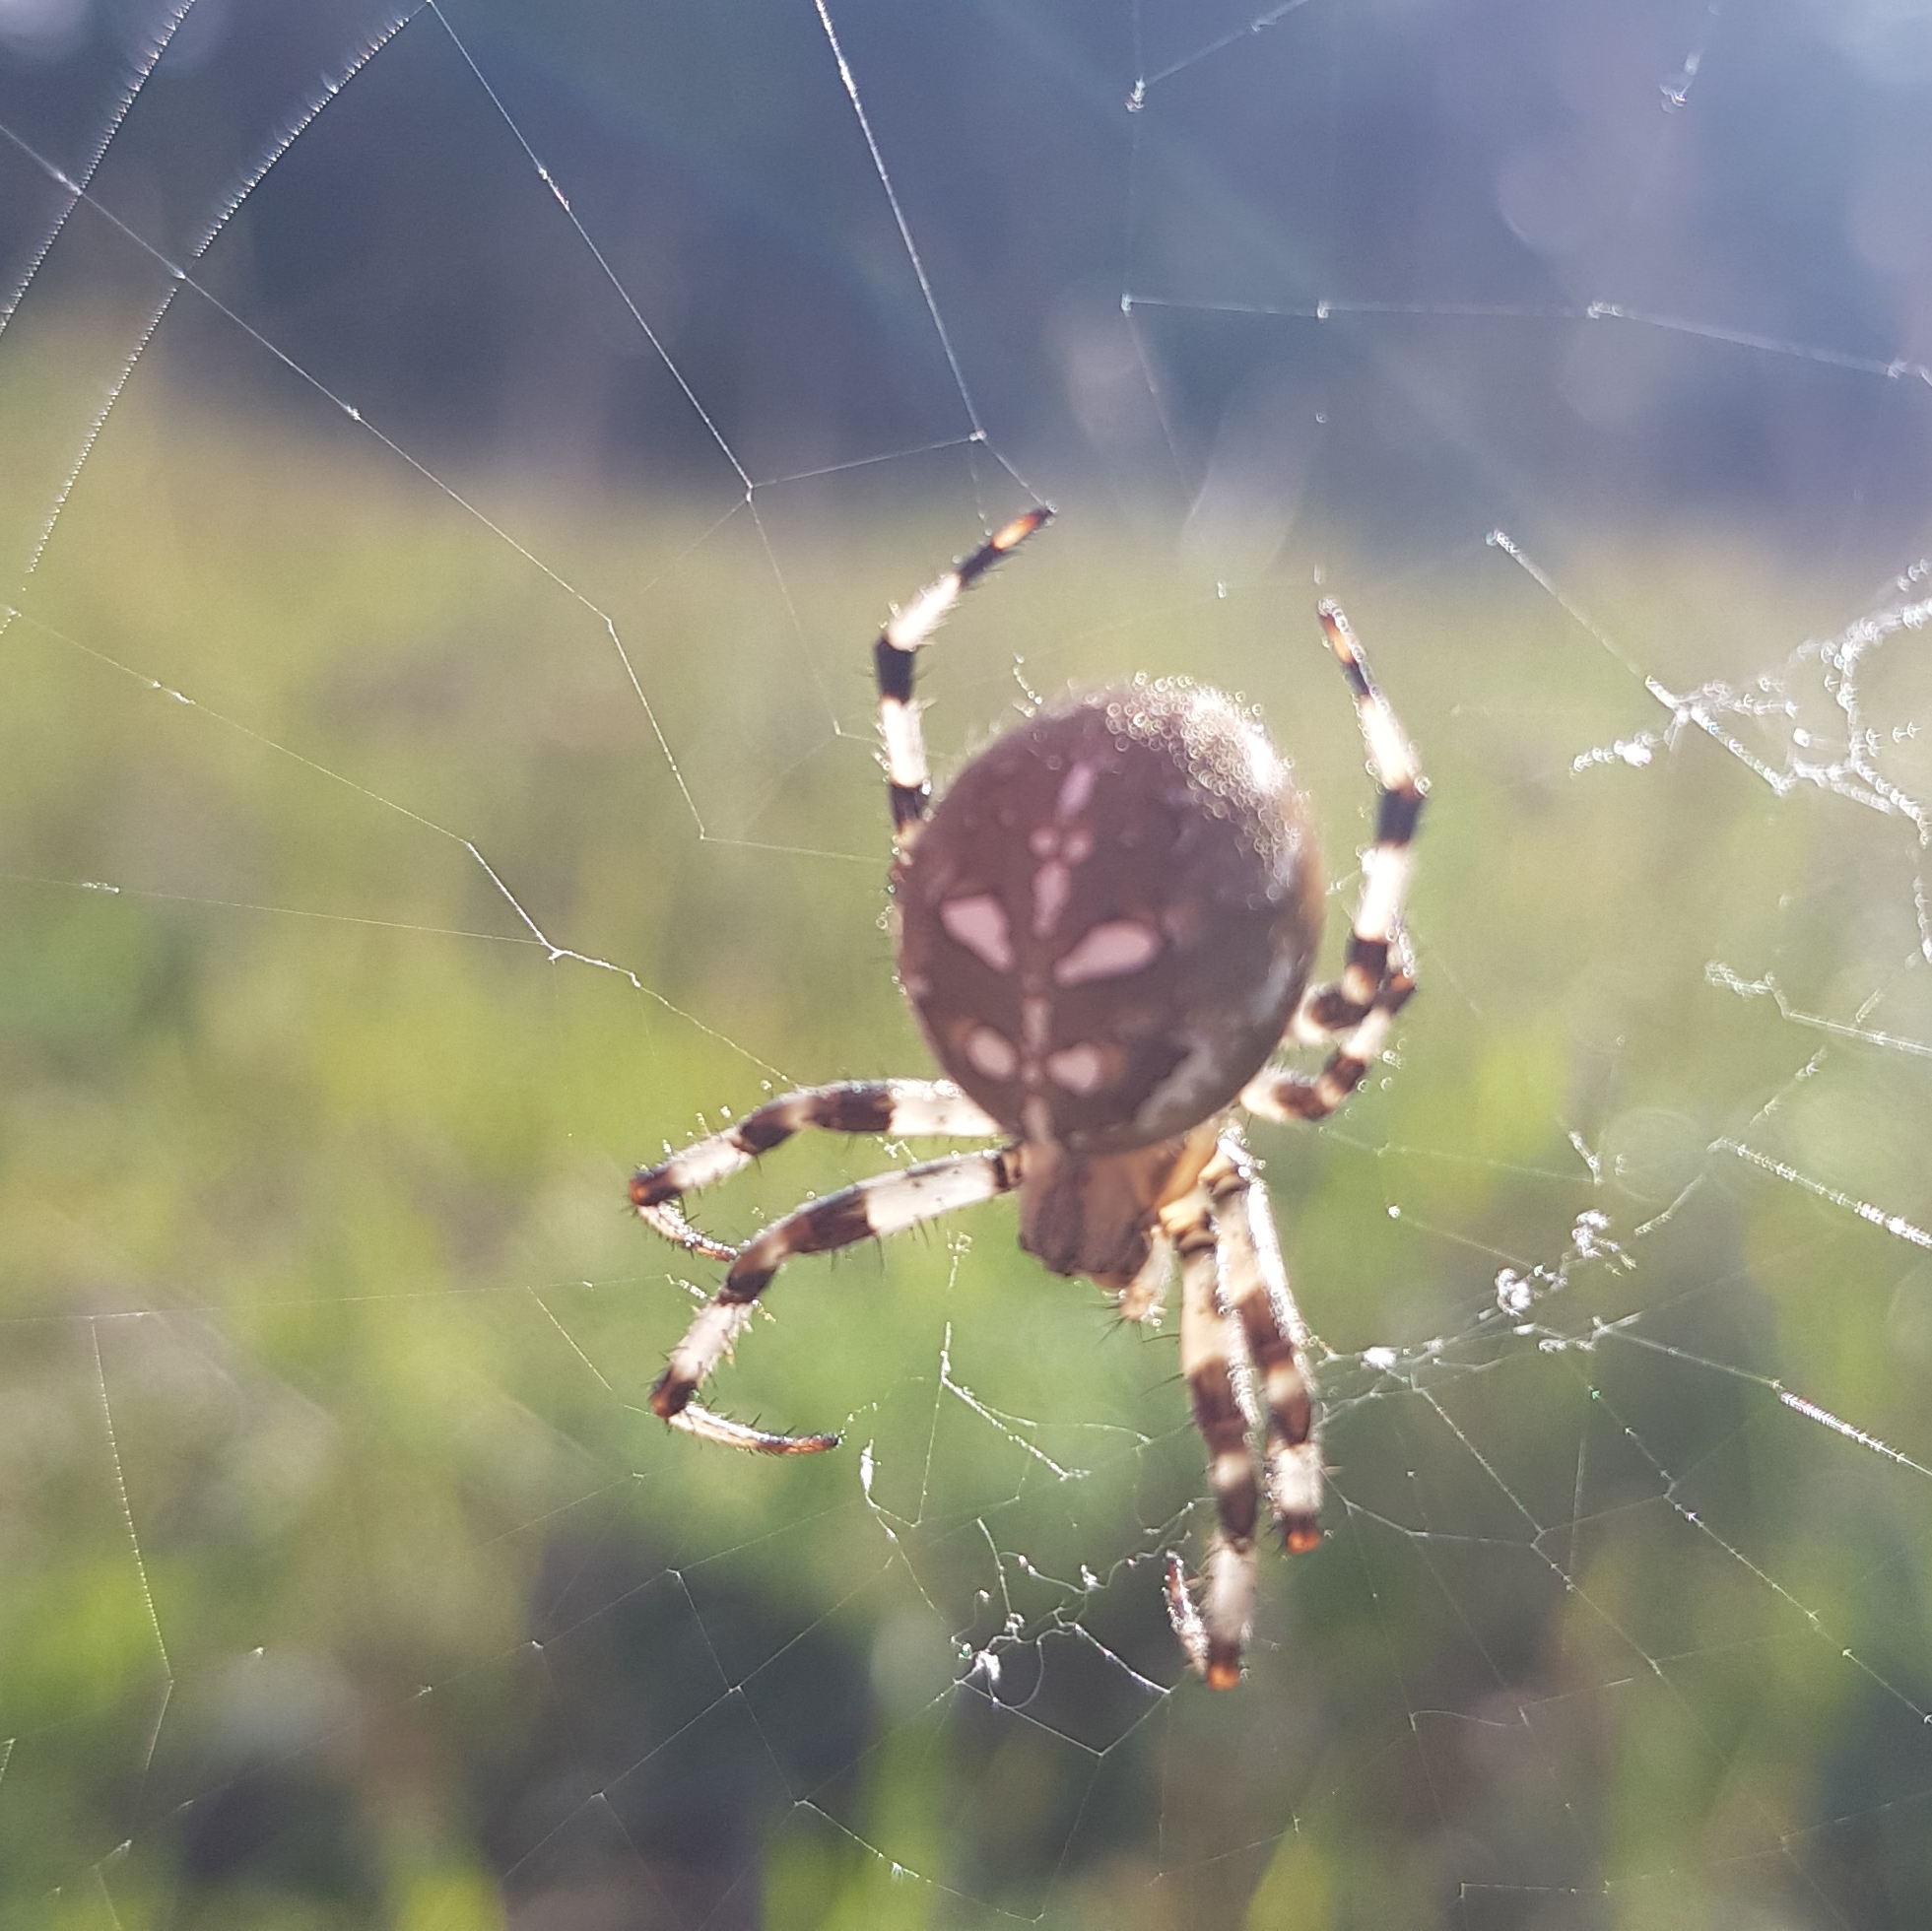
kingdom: Animalia
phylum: Arthropoda
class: Arachnida
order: Araneae
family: Araneidae
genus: Araneus
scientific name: Araneus quadratus
